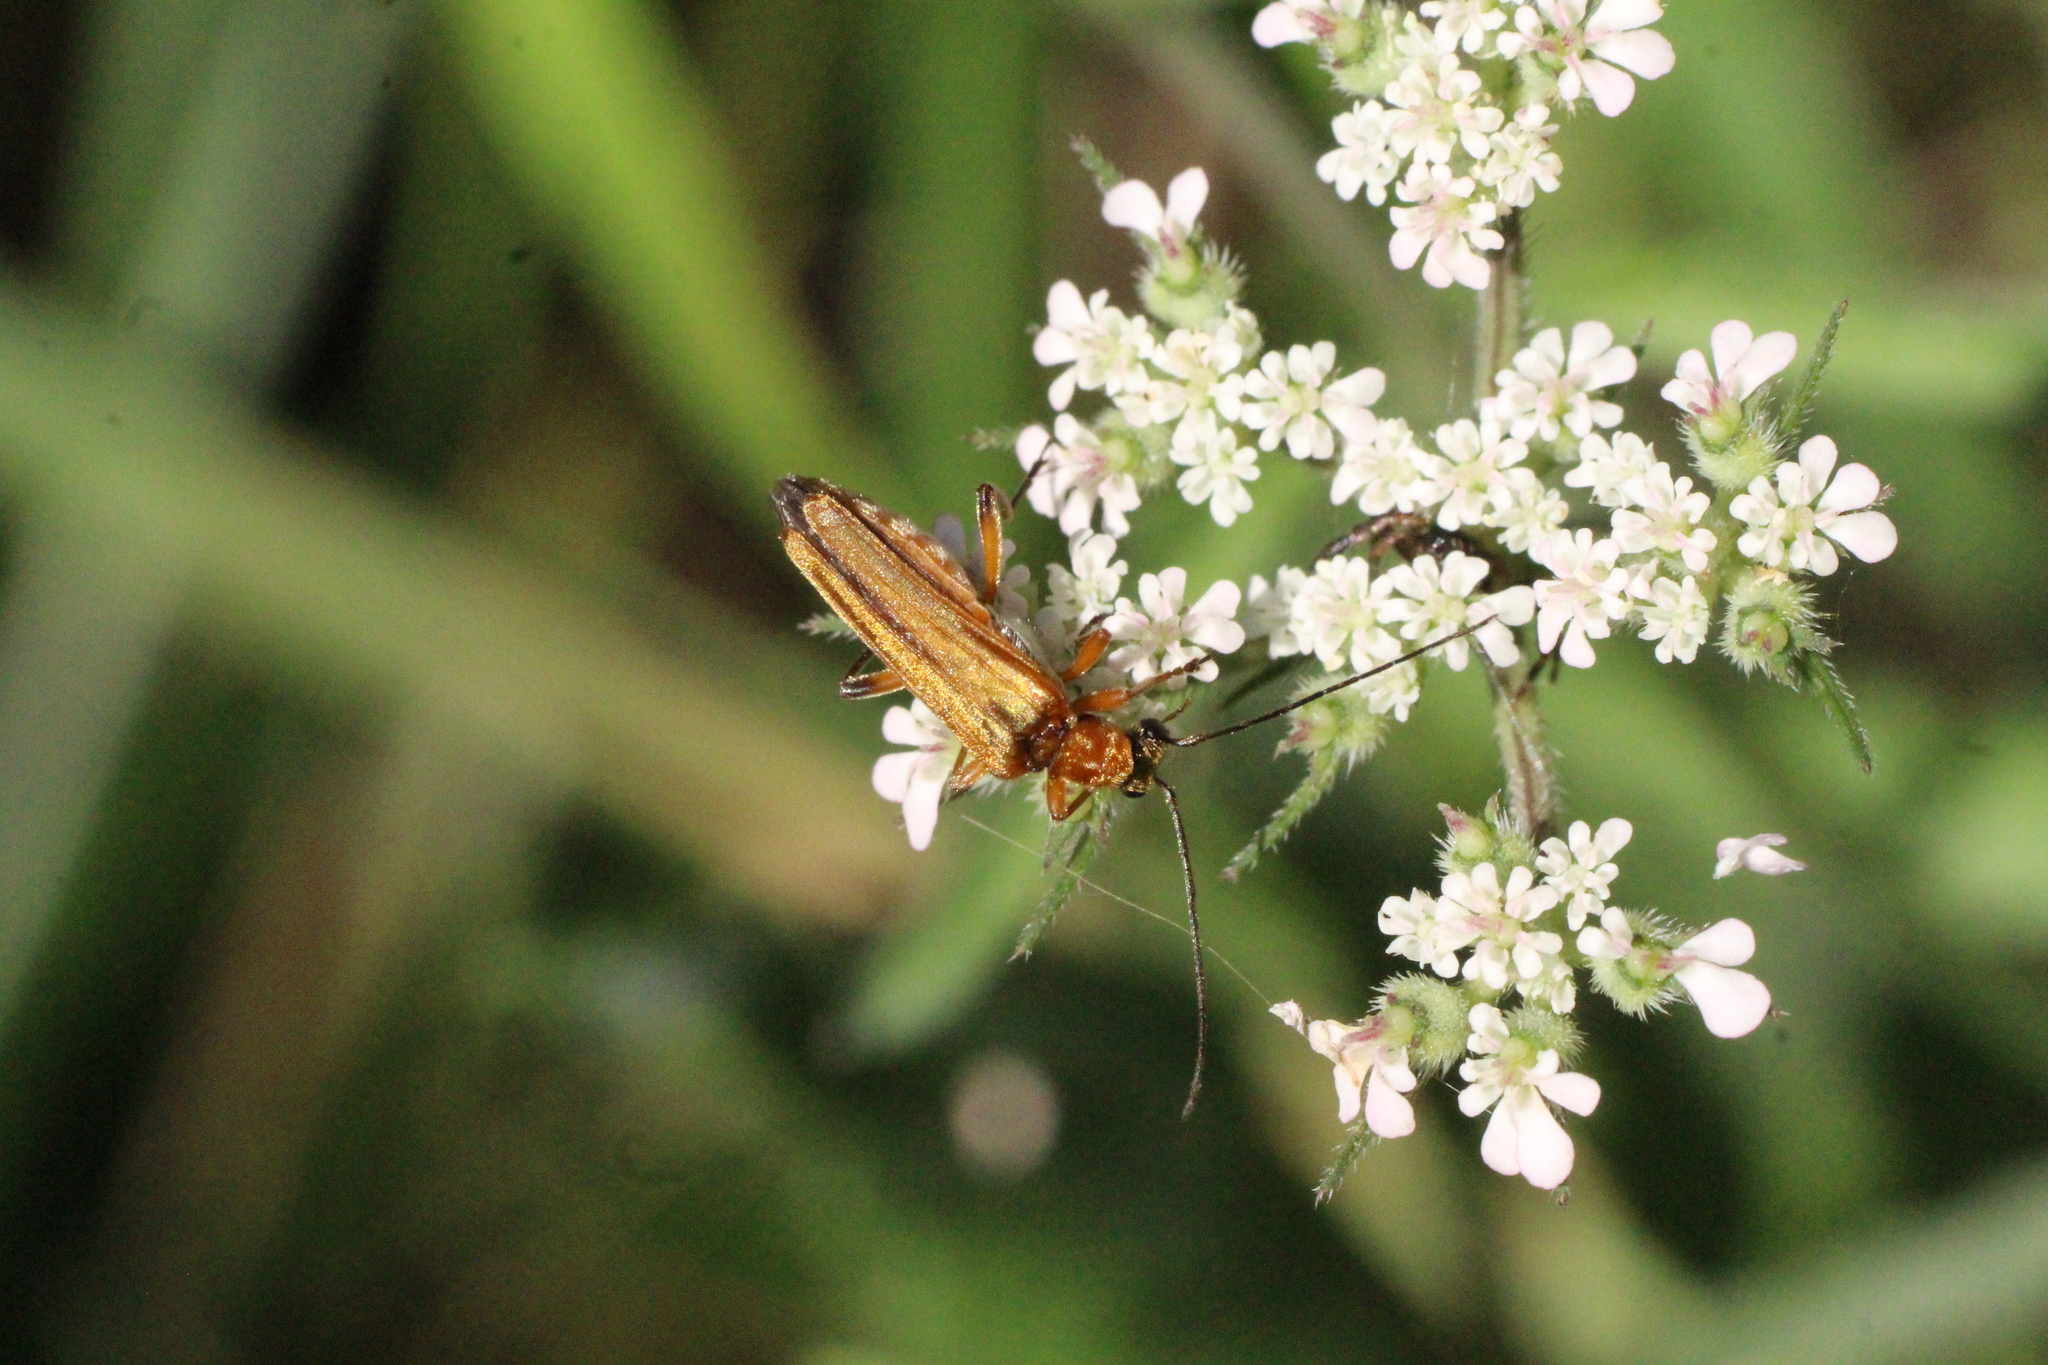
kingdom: Animalia
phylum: Arthropoda
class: Insecta
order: Coleoptera
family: Oedemeridae
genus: Oedemera
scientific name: Oedemera podagrariae
